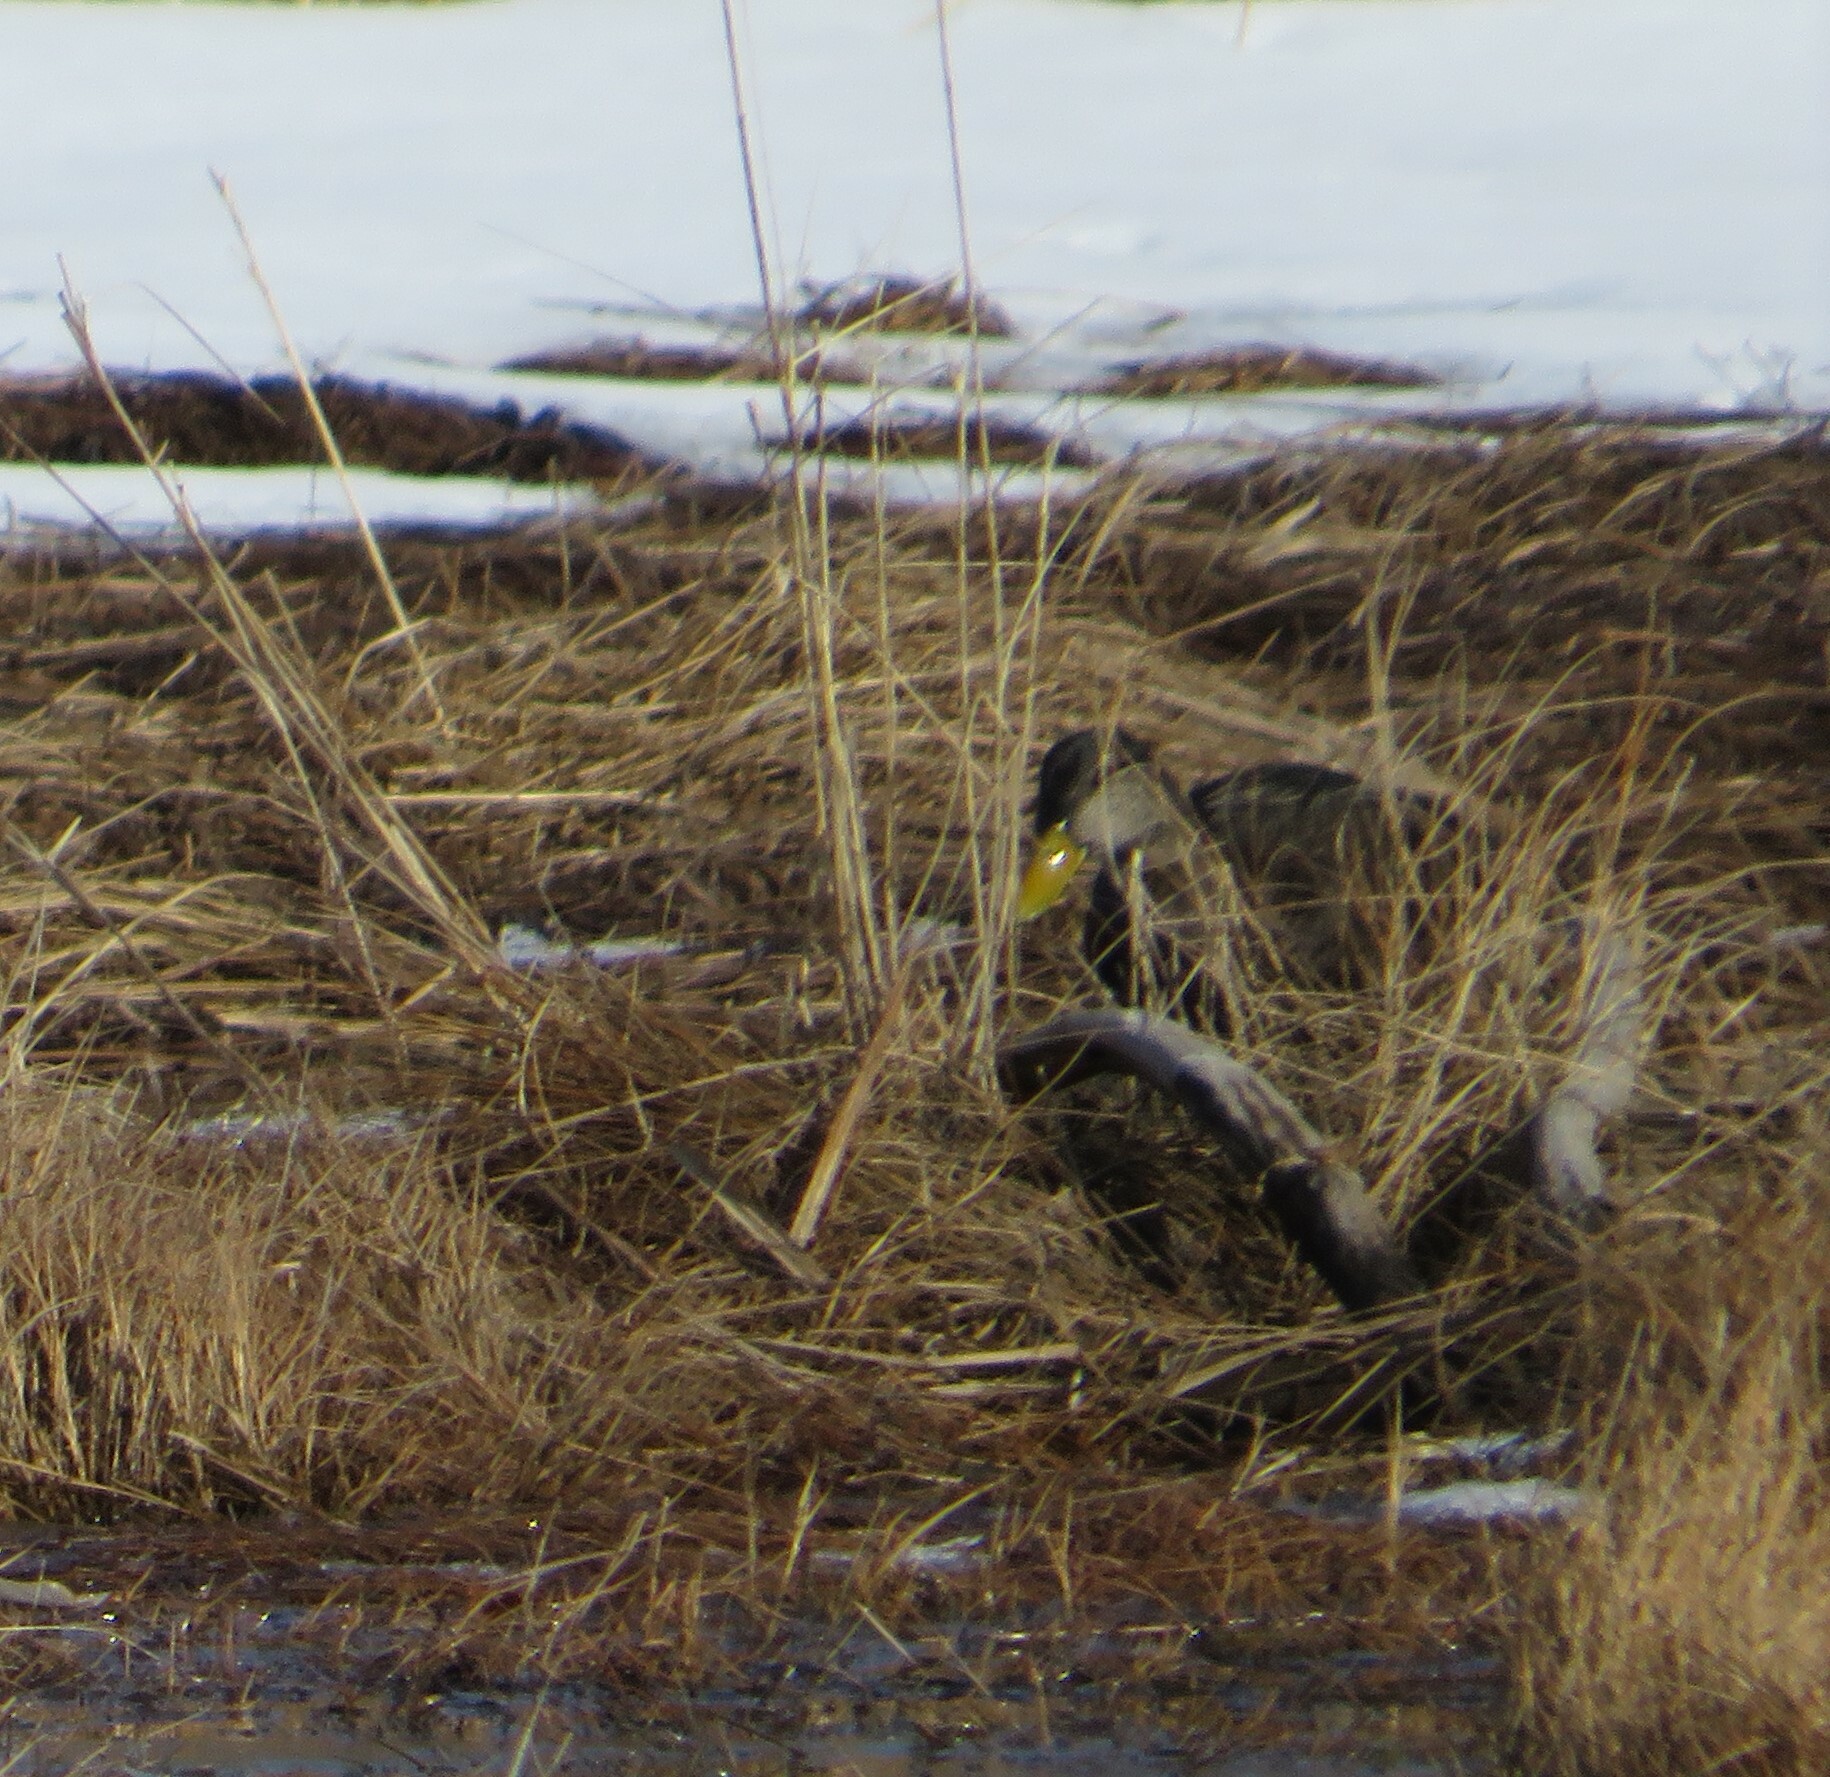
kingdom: Animalia
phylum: Chordata
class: Aves
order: Anseriformes
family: Anatidae
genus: Anas
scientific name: Anas rubripes
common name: American black duck
